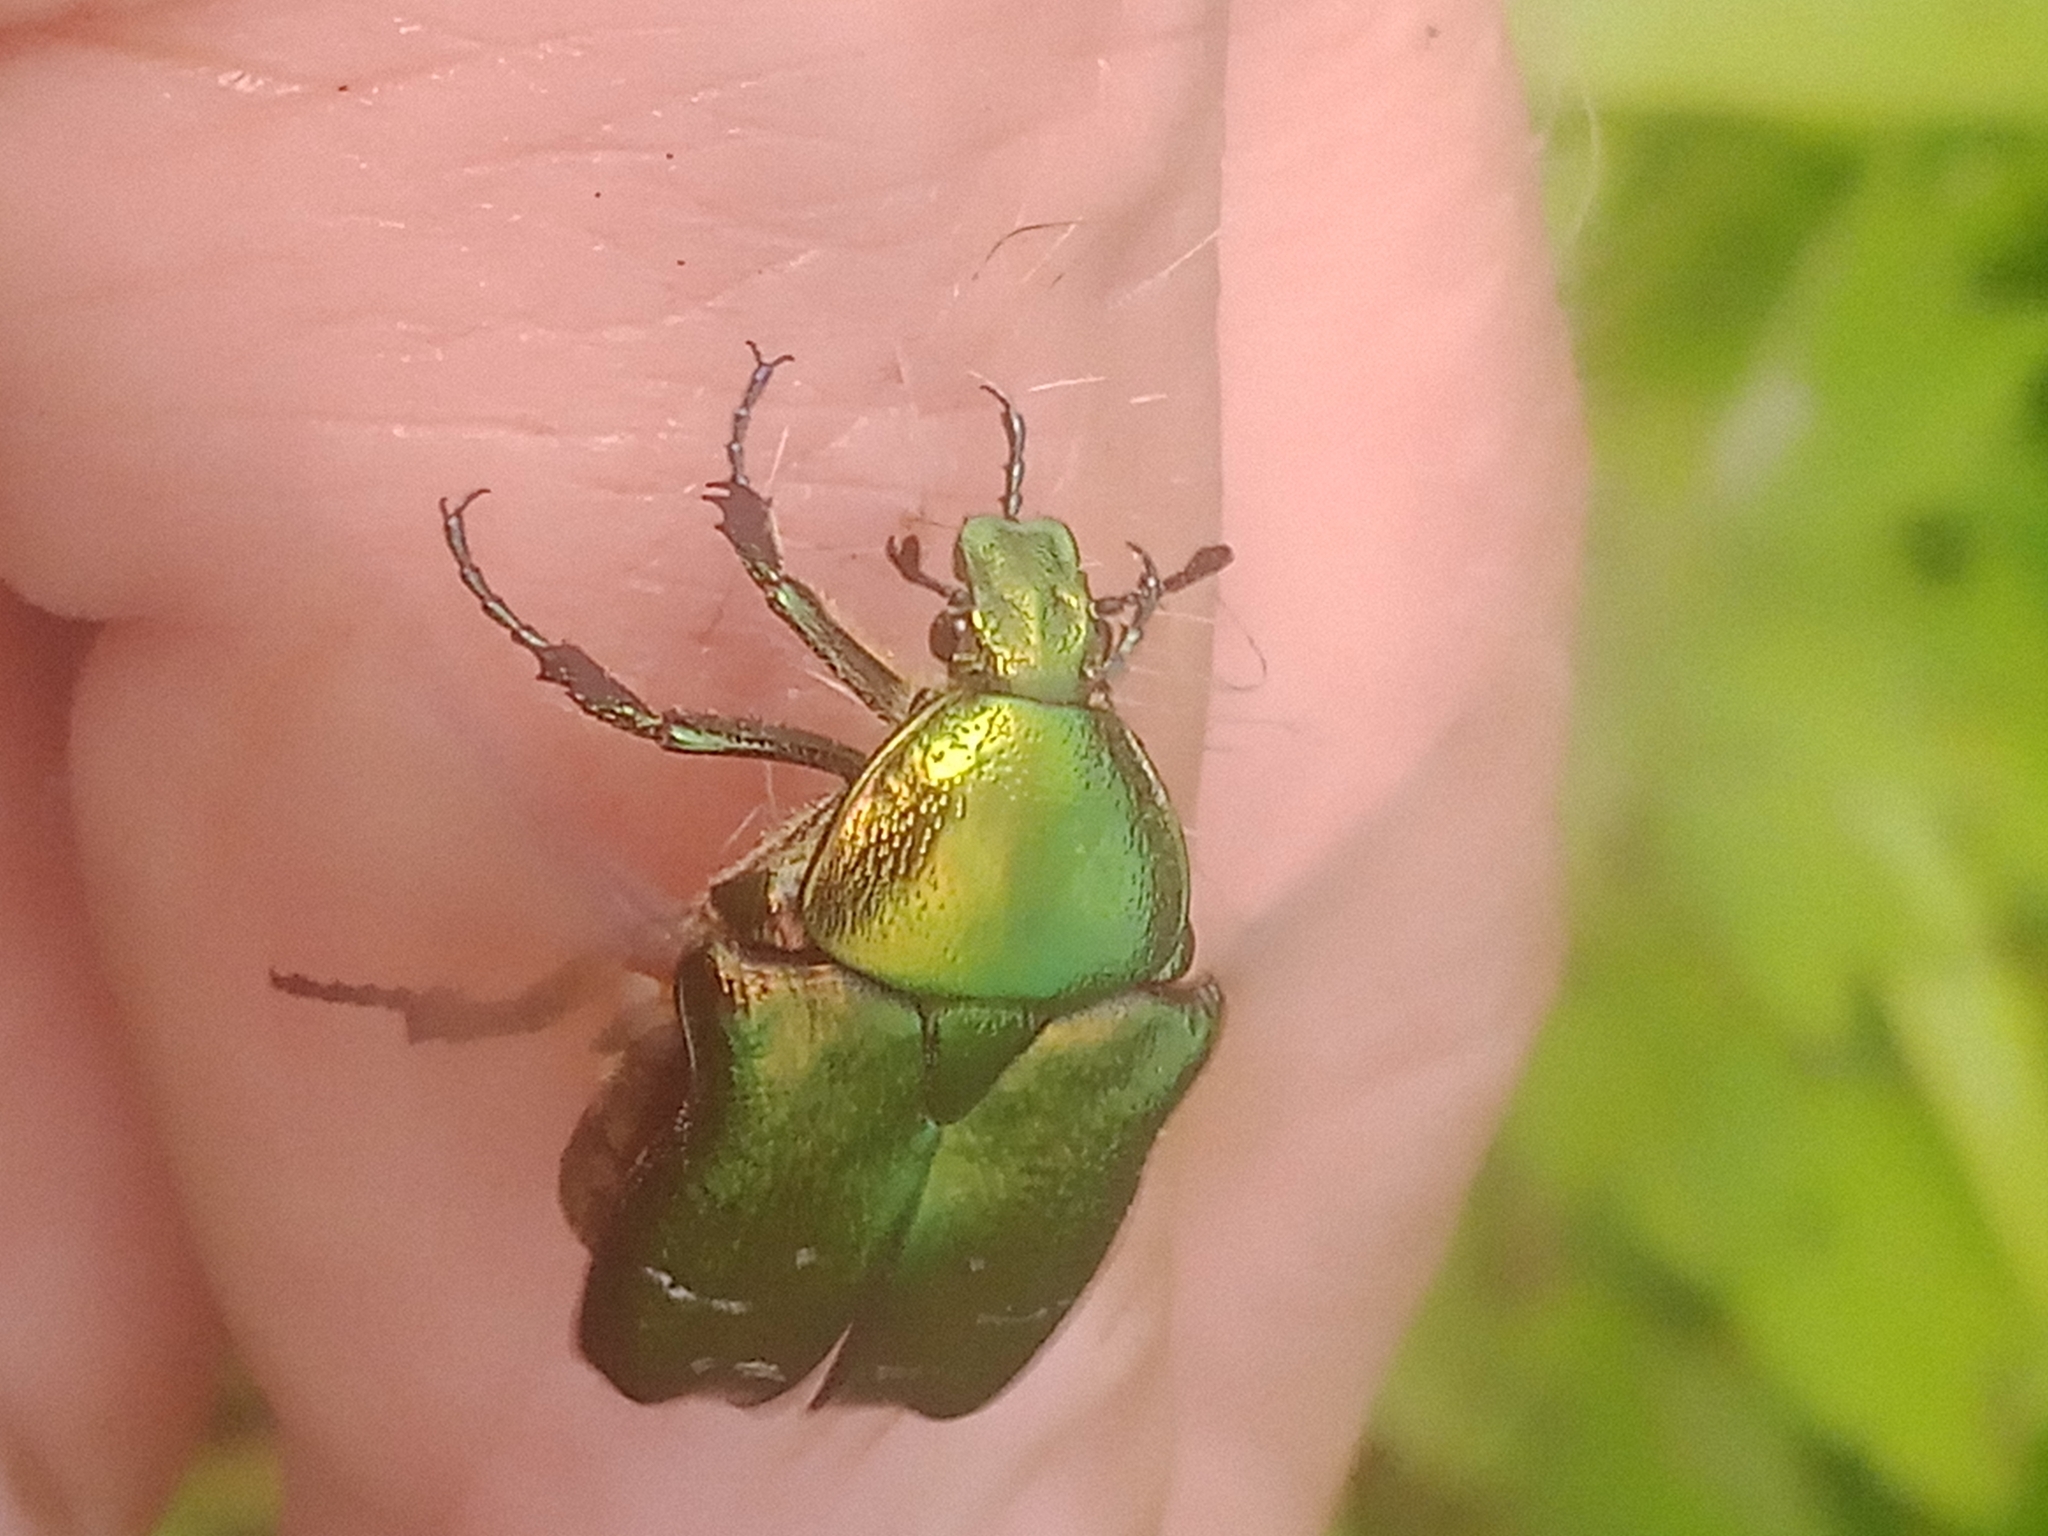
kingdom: Animalia
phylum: Arthropoda
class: Insecta
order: Coleoptera
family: Scarabaeidae
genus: Cetonia
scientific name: Cetonia aurata
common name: Rose chafer
